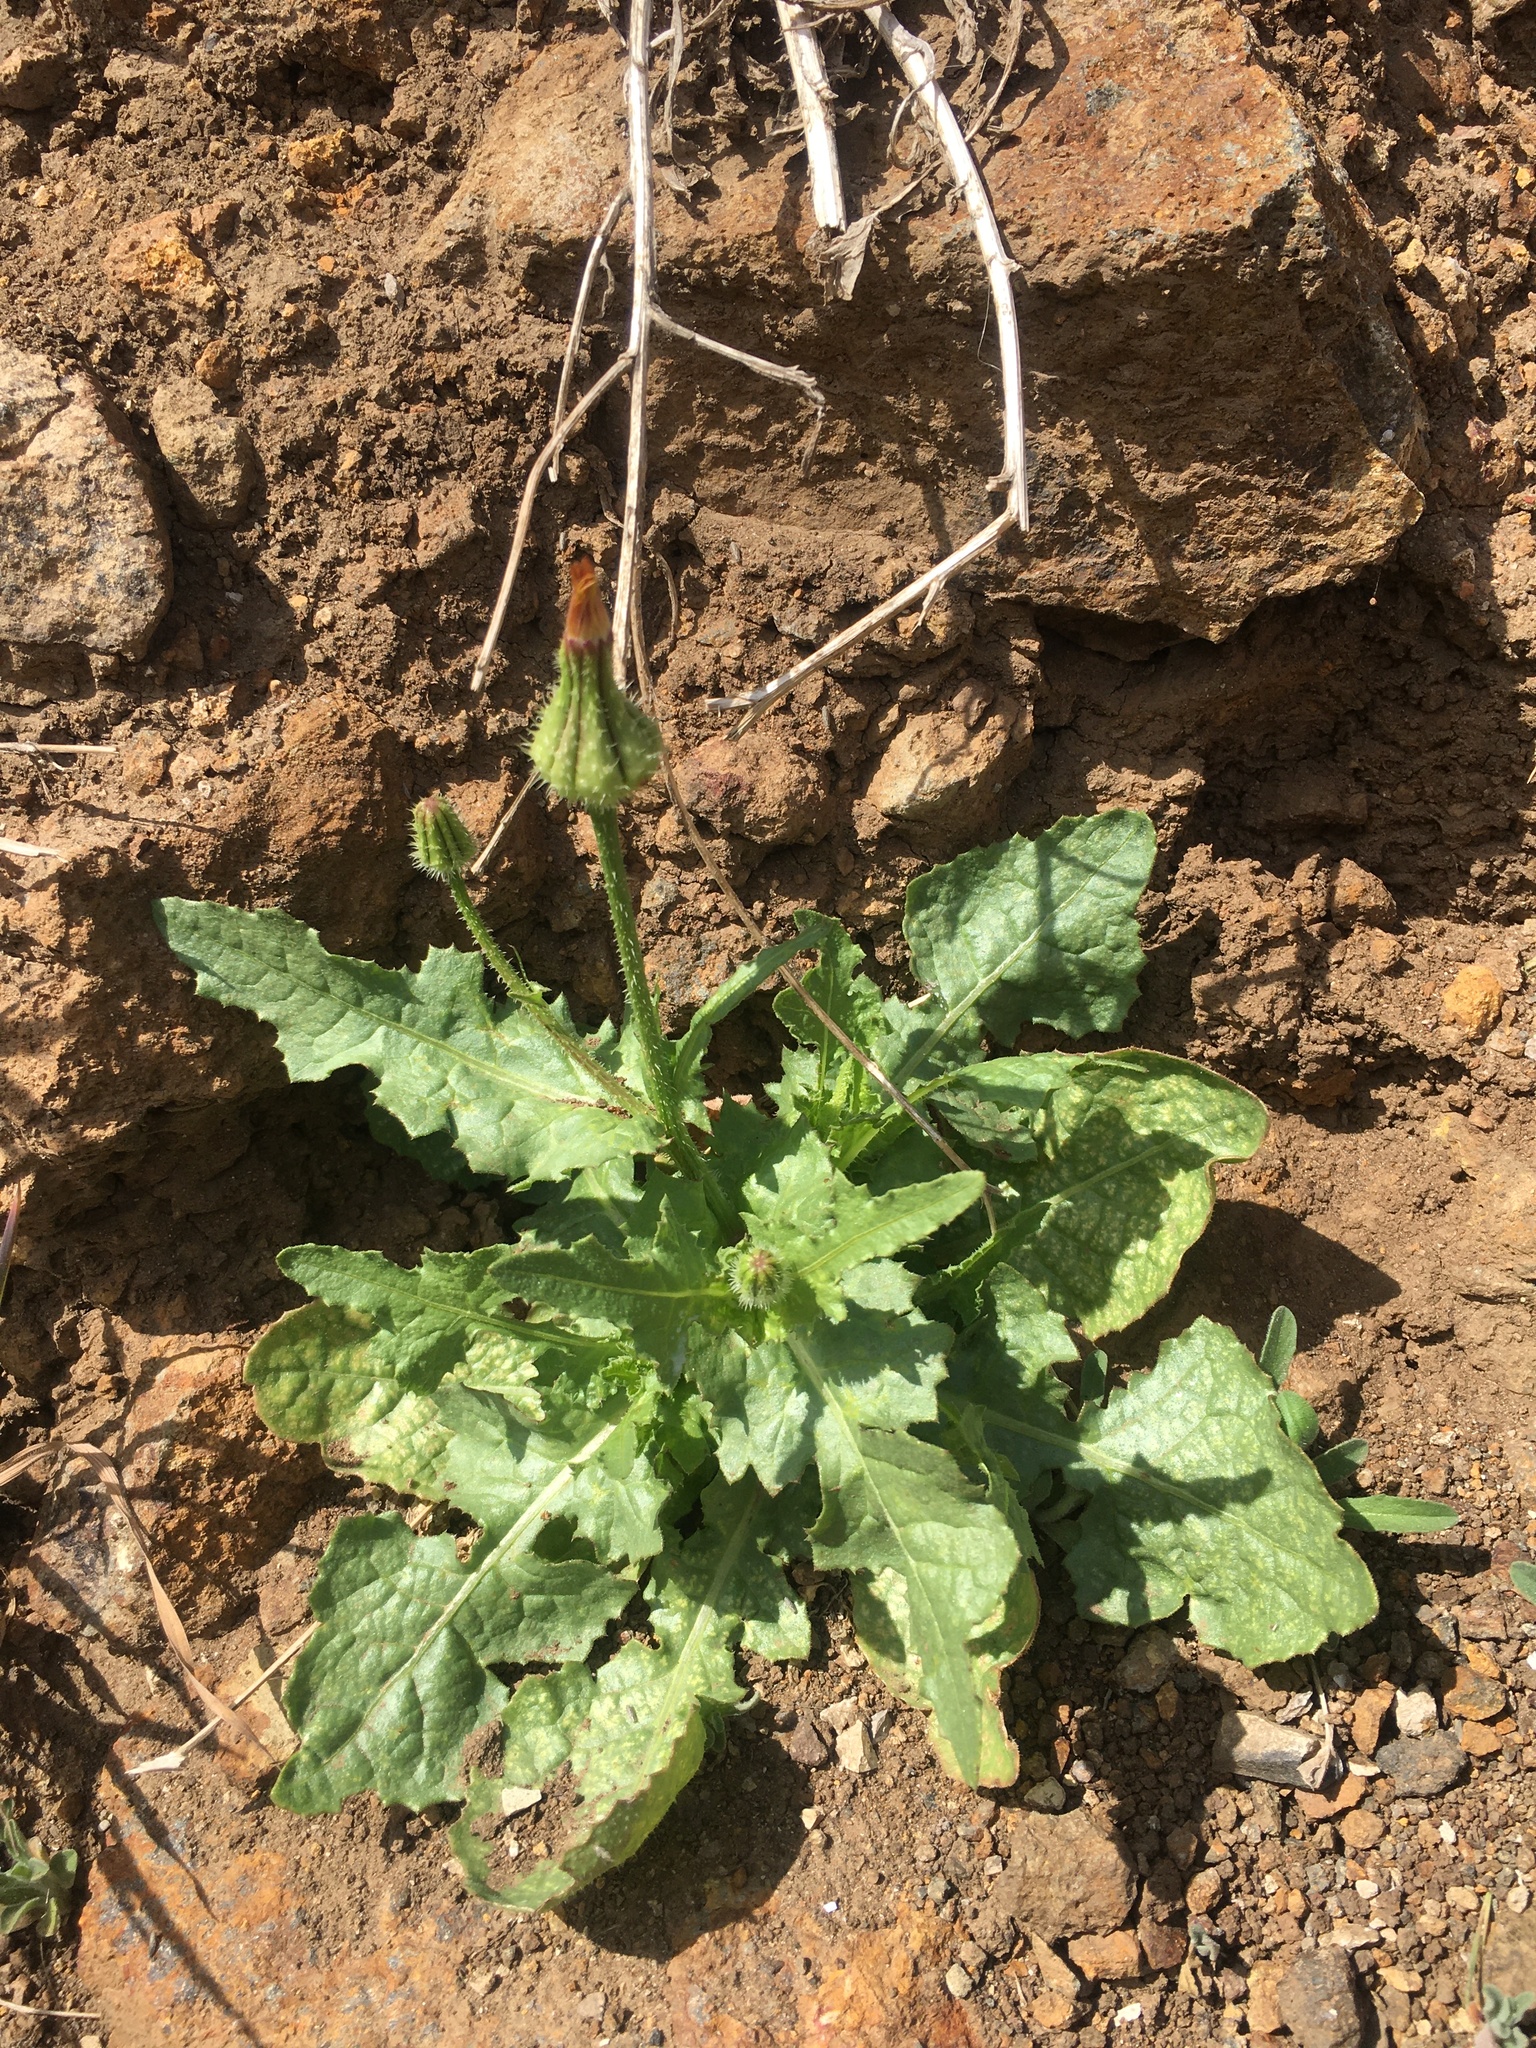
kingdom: Plantae
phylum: Tracheophyta
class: Magnoliopsida
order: Asterales
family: Asteraceae
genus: Urospermum
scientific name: Urospermum picroides
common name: False hawkbit
